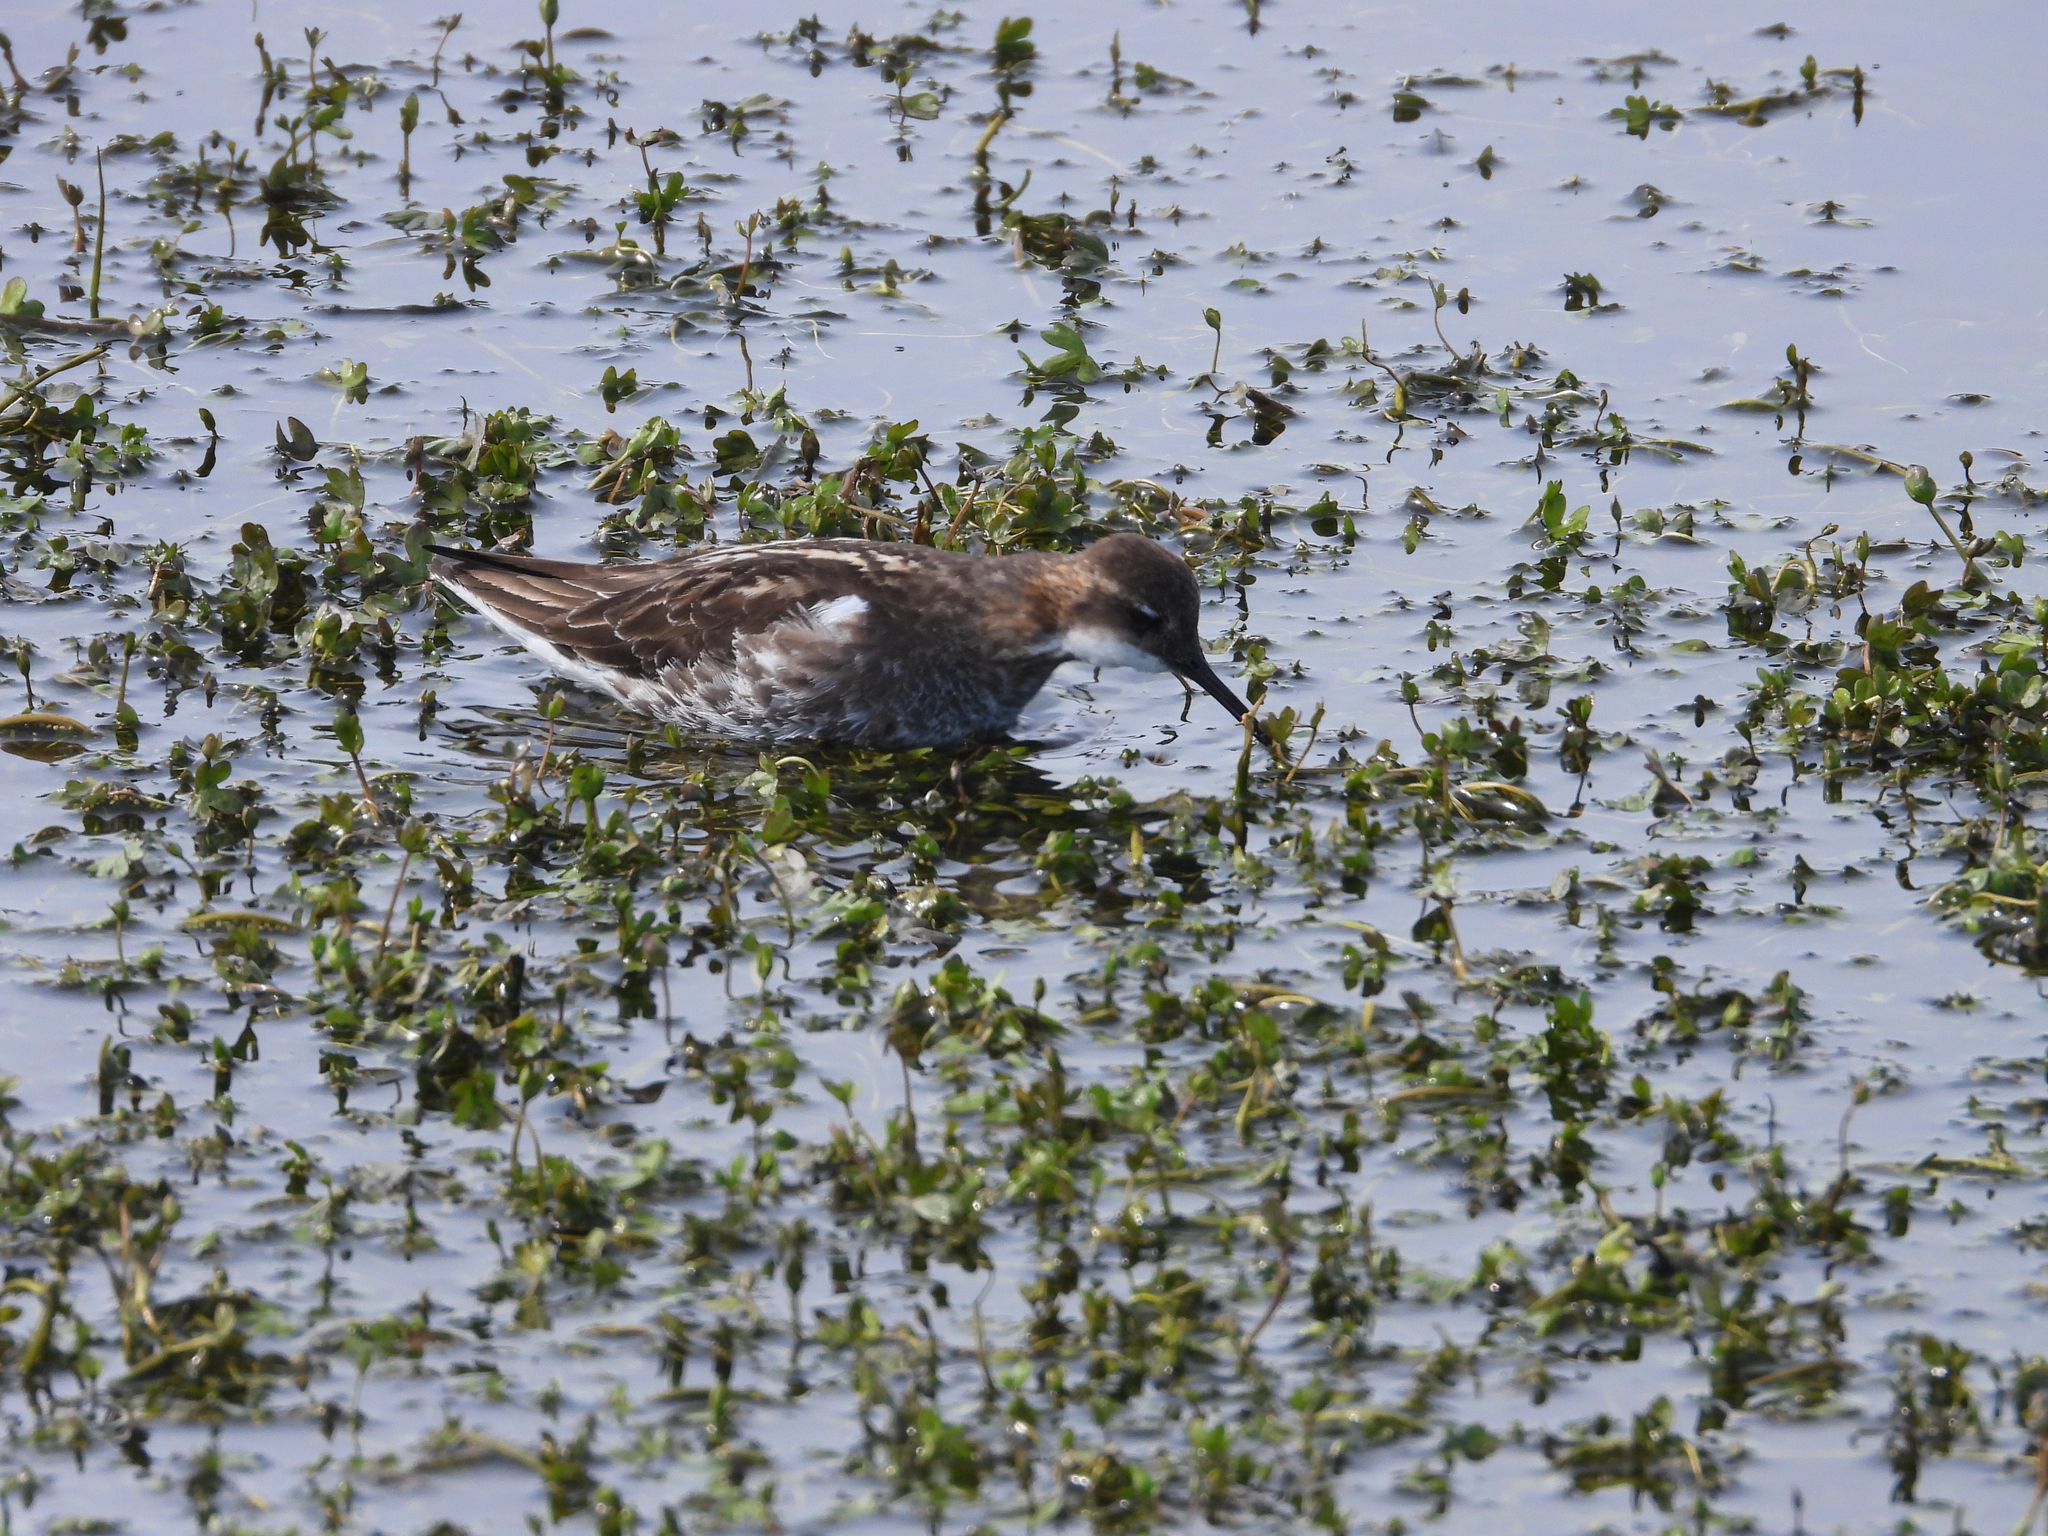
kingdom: Animalia
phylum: Chordata
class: Aves
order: Charadriiformes
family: Scolopacidae
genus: Phalaropus
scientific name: Phalaropus lobatus
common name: Red-necked phalarope
